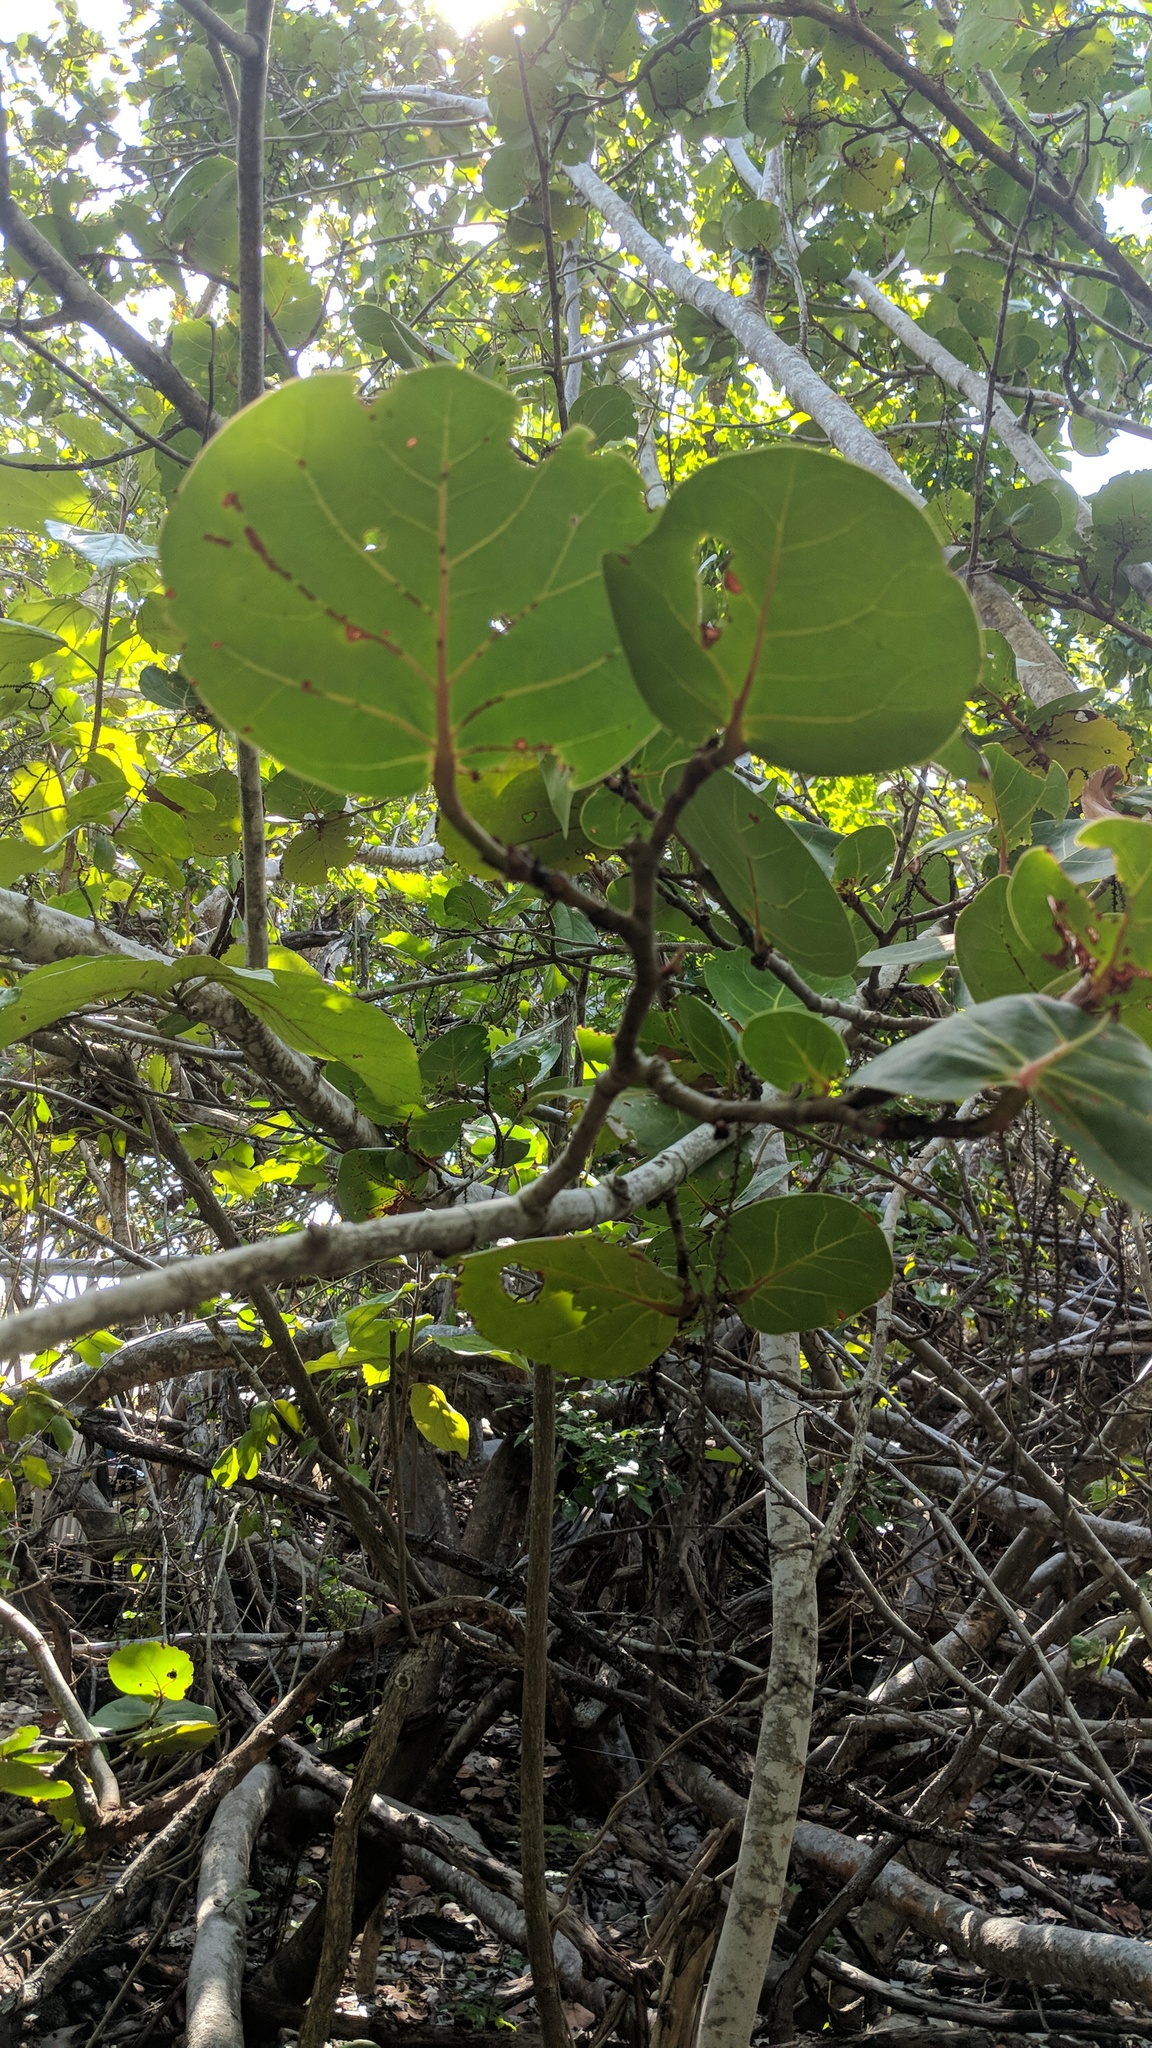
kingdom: Plantae
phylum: Tracheophyta
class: Magnoliopsida
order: Caryophyllales
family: Polygonaceae
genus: Coccoloba
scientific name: Coccoloba uvifera
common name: Seagrape
